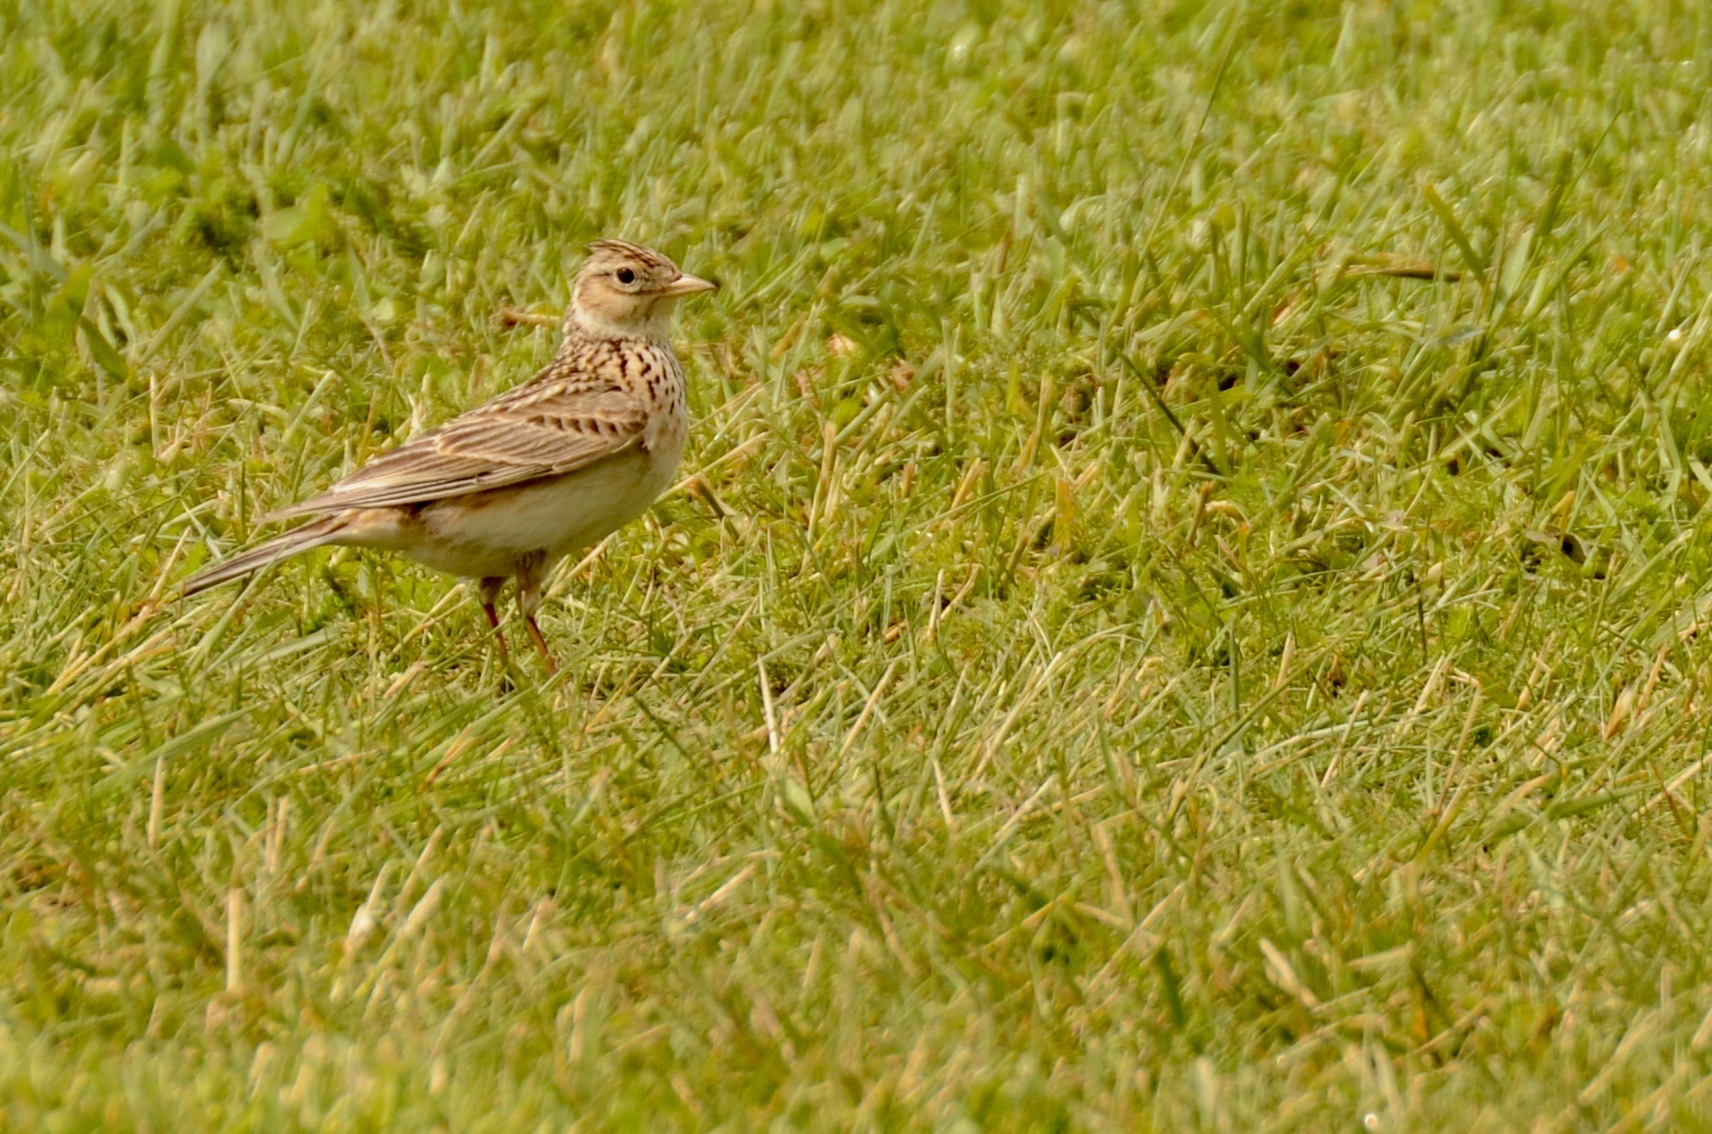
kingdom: Animalia
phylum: Chordata
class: Aves
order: Passeriformes
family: Alaudidae
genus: Alauda
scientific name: Alauda arvensis
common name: Eurasian skylark
